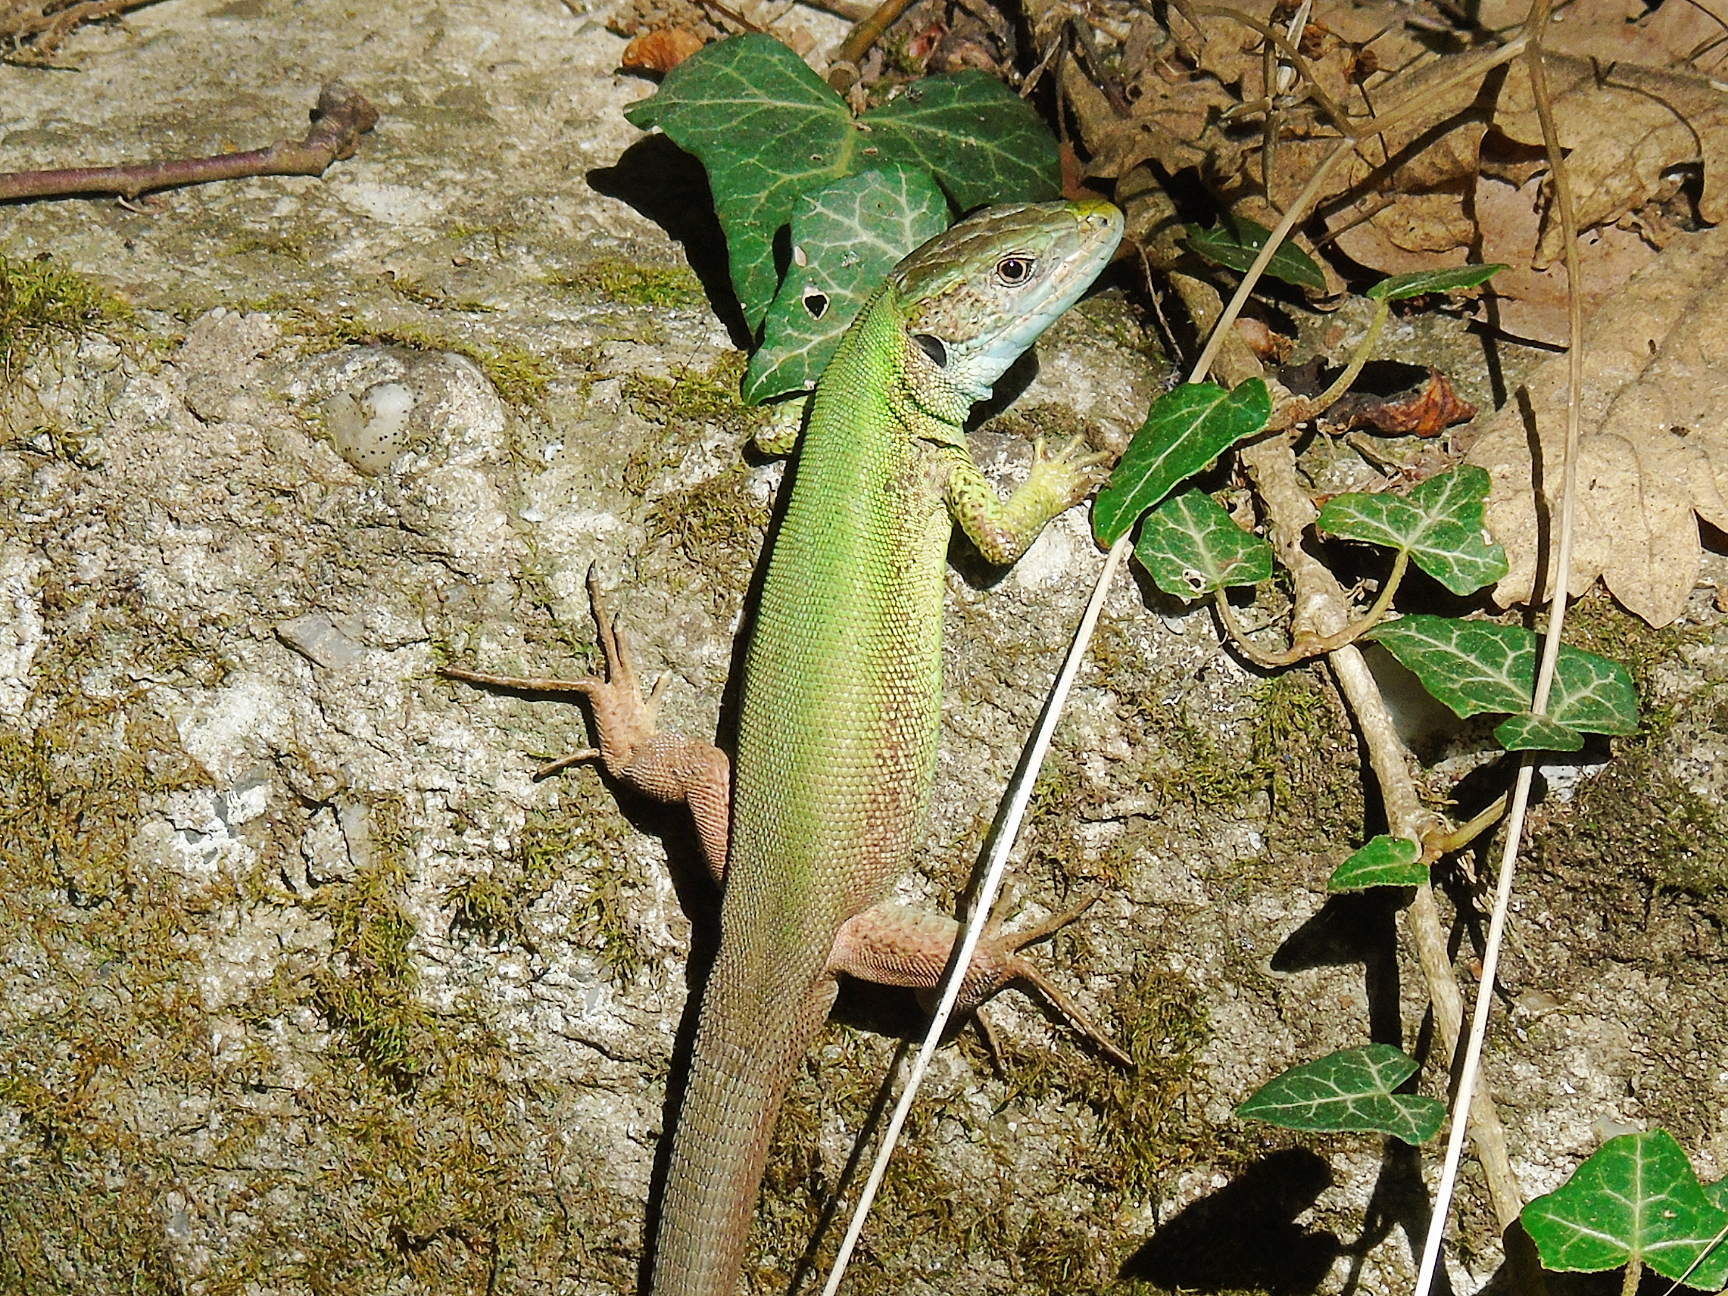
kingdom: Animalia
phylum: Chordata
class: Squamata
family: Lacertidae
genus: Lacerta
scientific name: Lacerta viridis
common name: European green lizard
